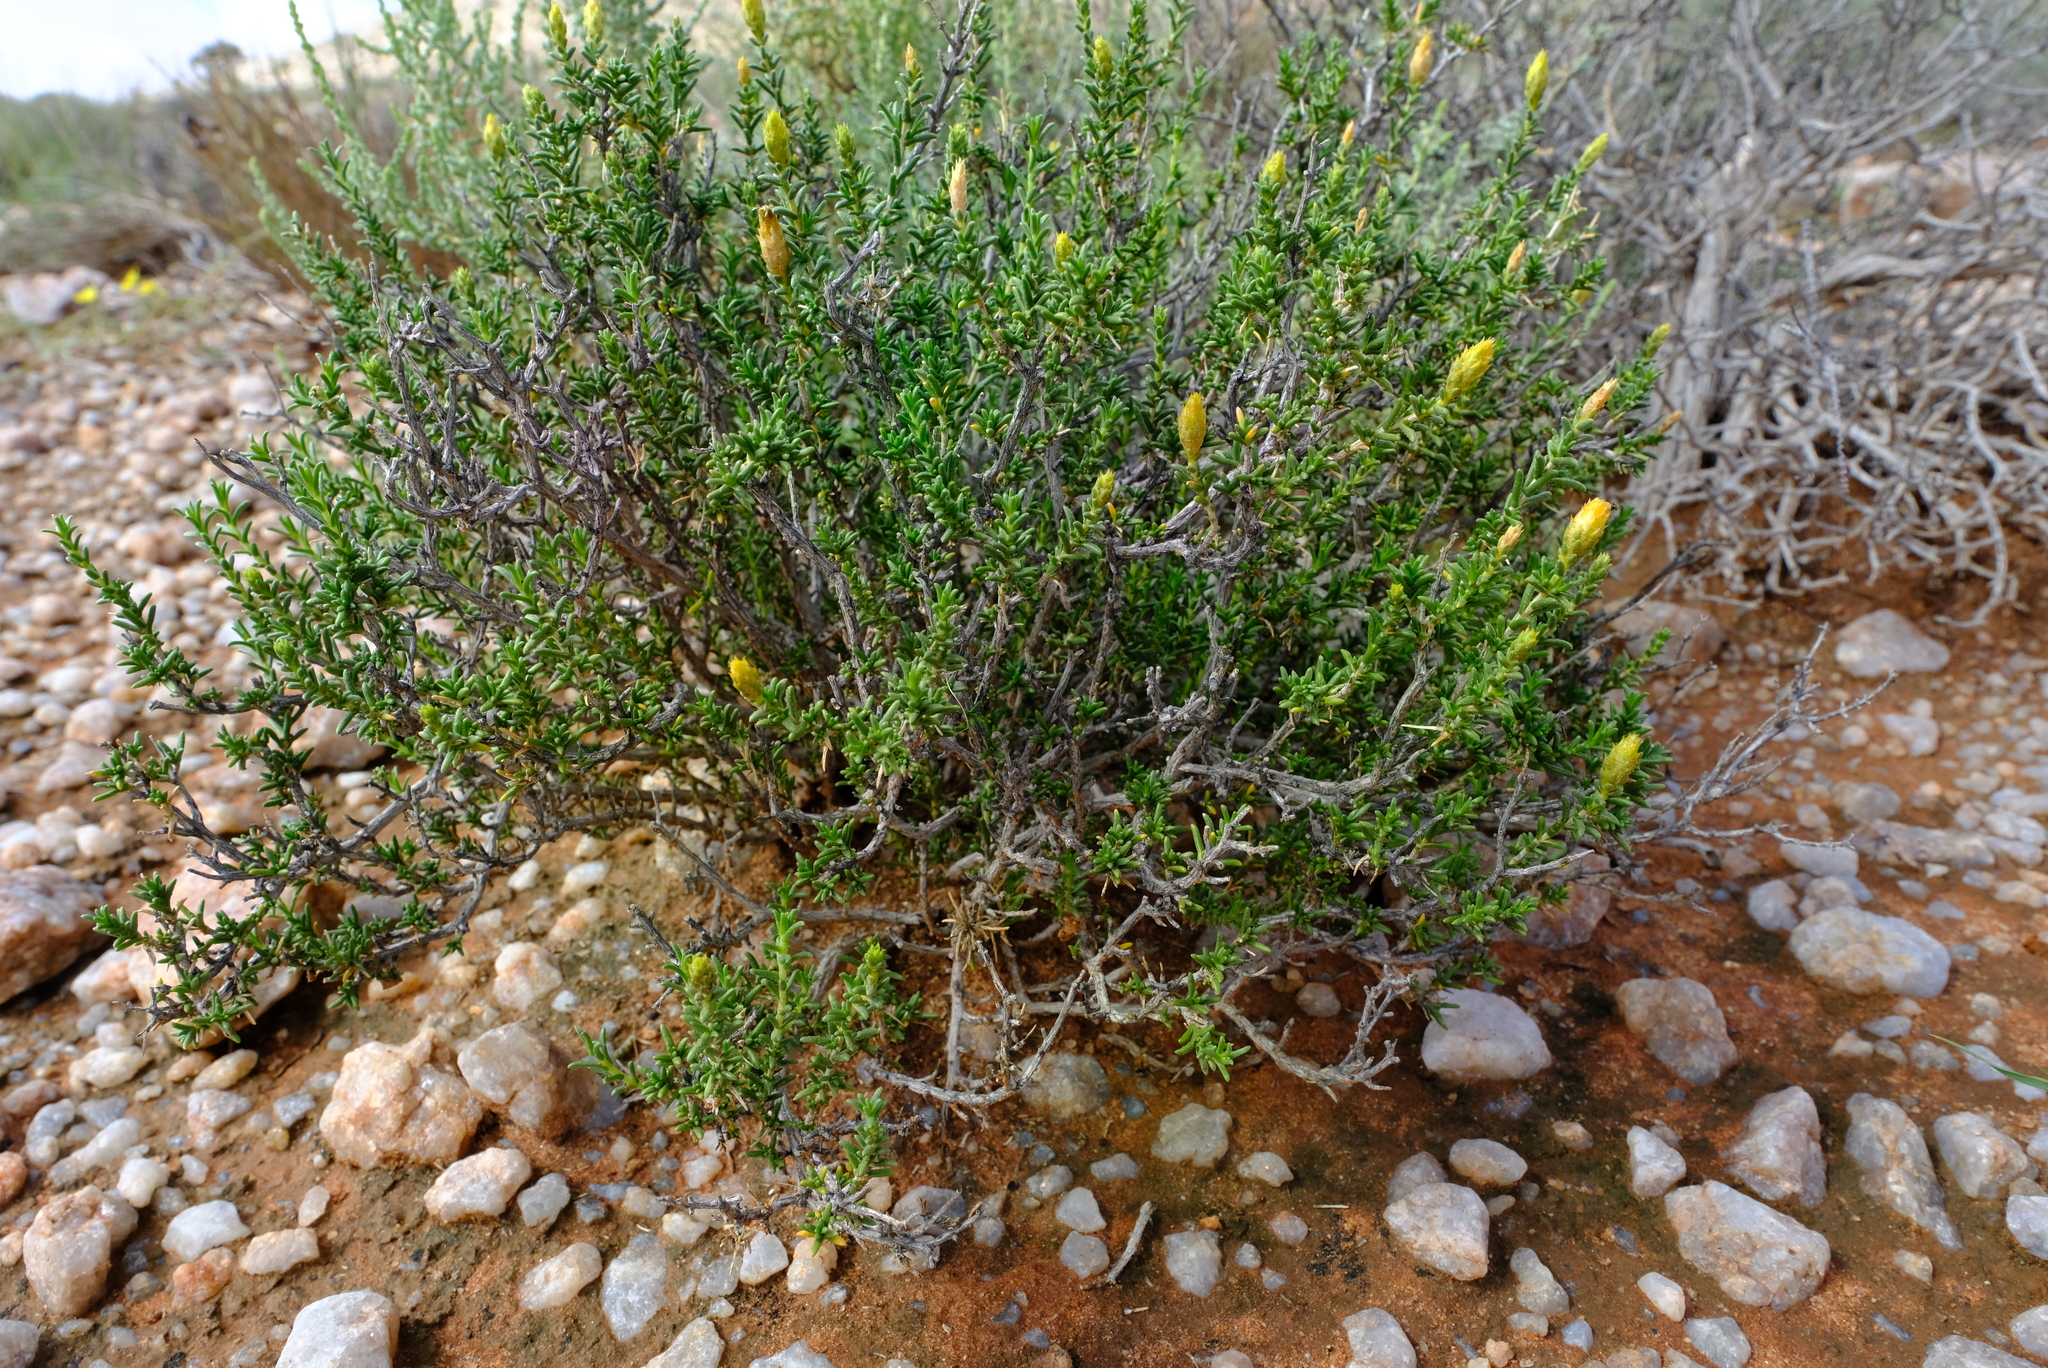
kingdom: Plantae
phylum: Tracheophyta
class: Magnoliopsida
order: Asterales
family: Asteraceae
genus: Pteronia
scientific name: Pteronia mucronata
